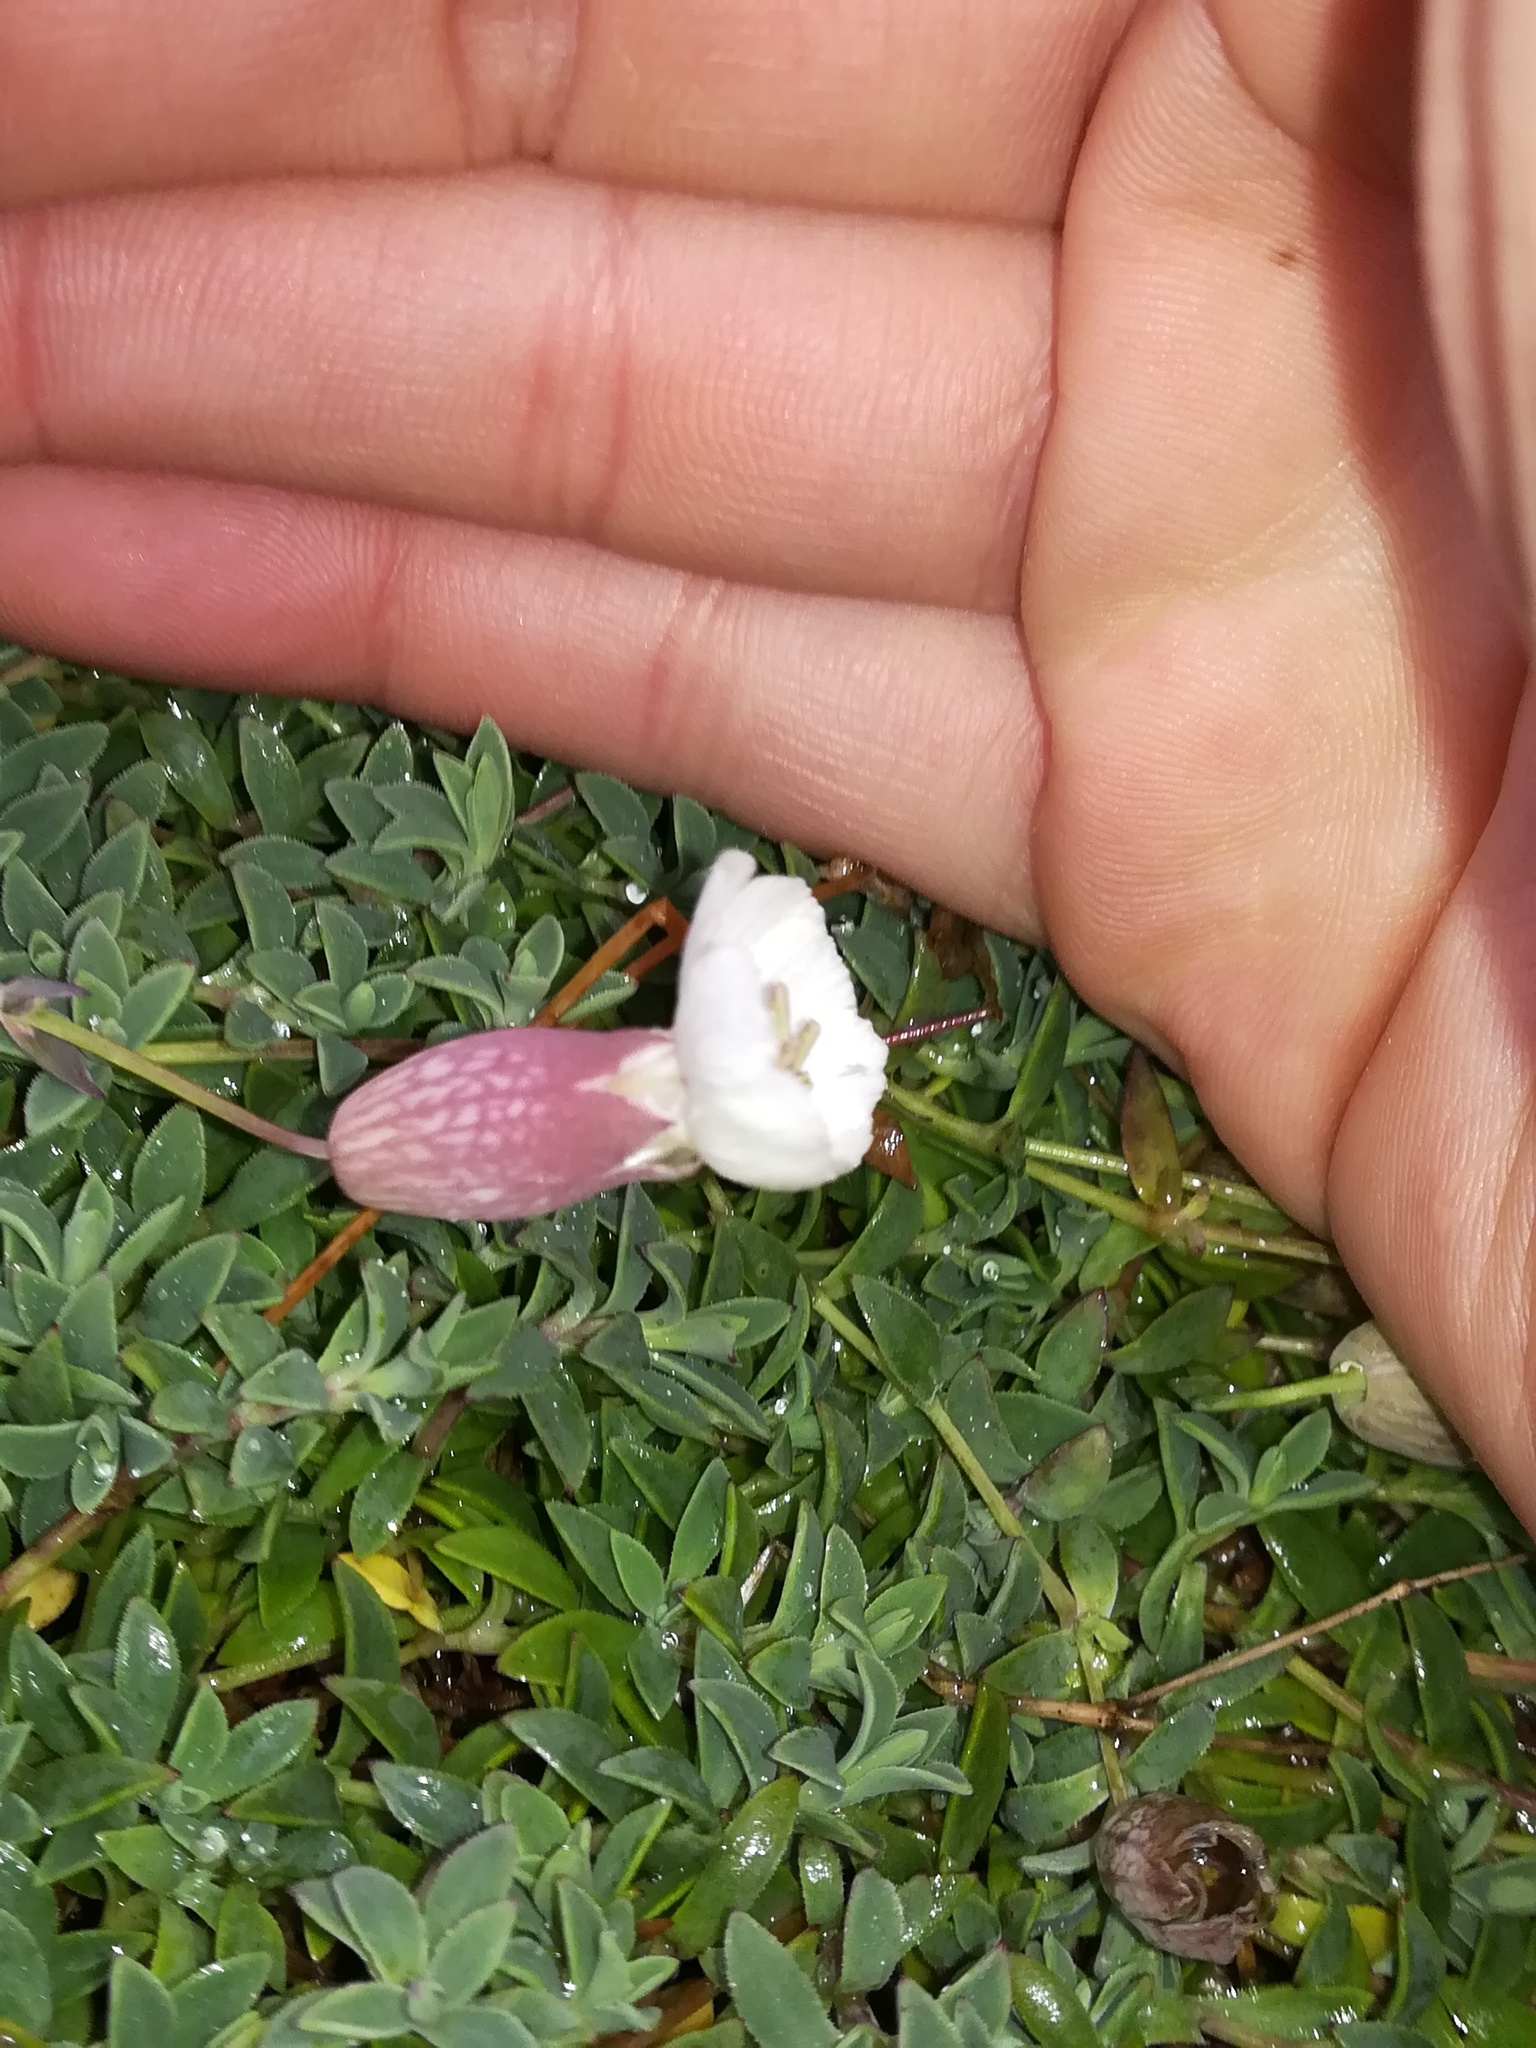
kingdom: Plantae
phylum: Tracheophyta
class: Magnoliopsida
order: Caryophyllales
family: Caryophyllaceae
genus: Silene
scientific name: Silene vulgaris
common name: Bladder campion
